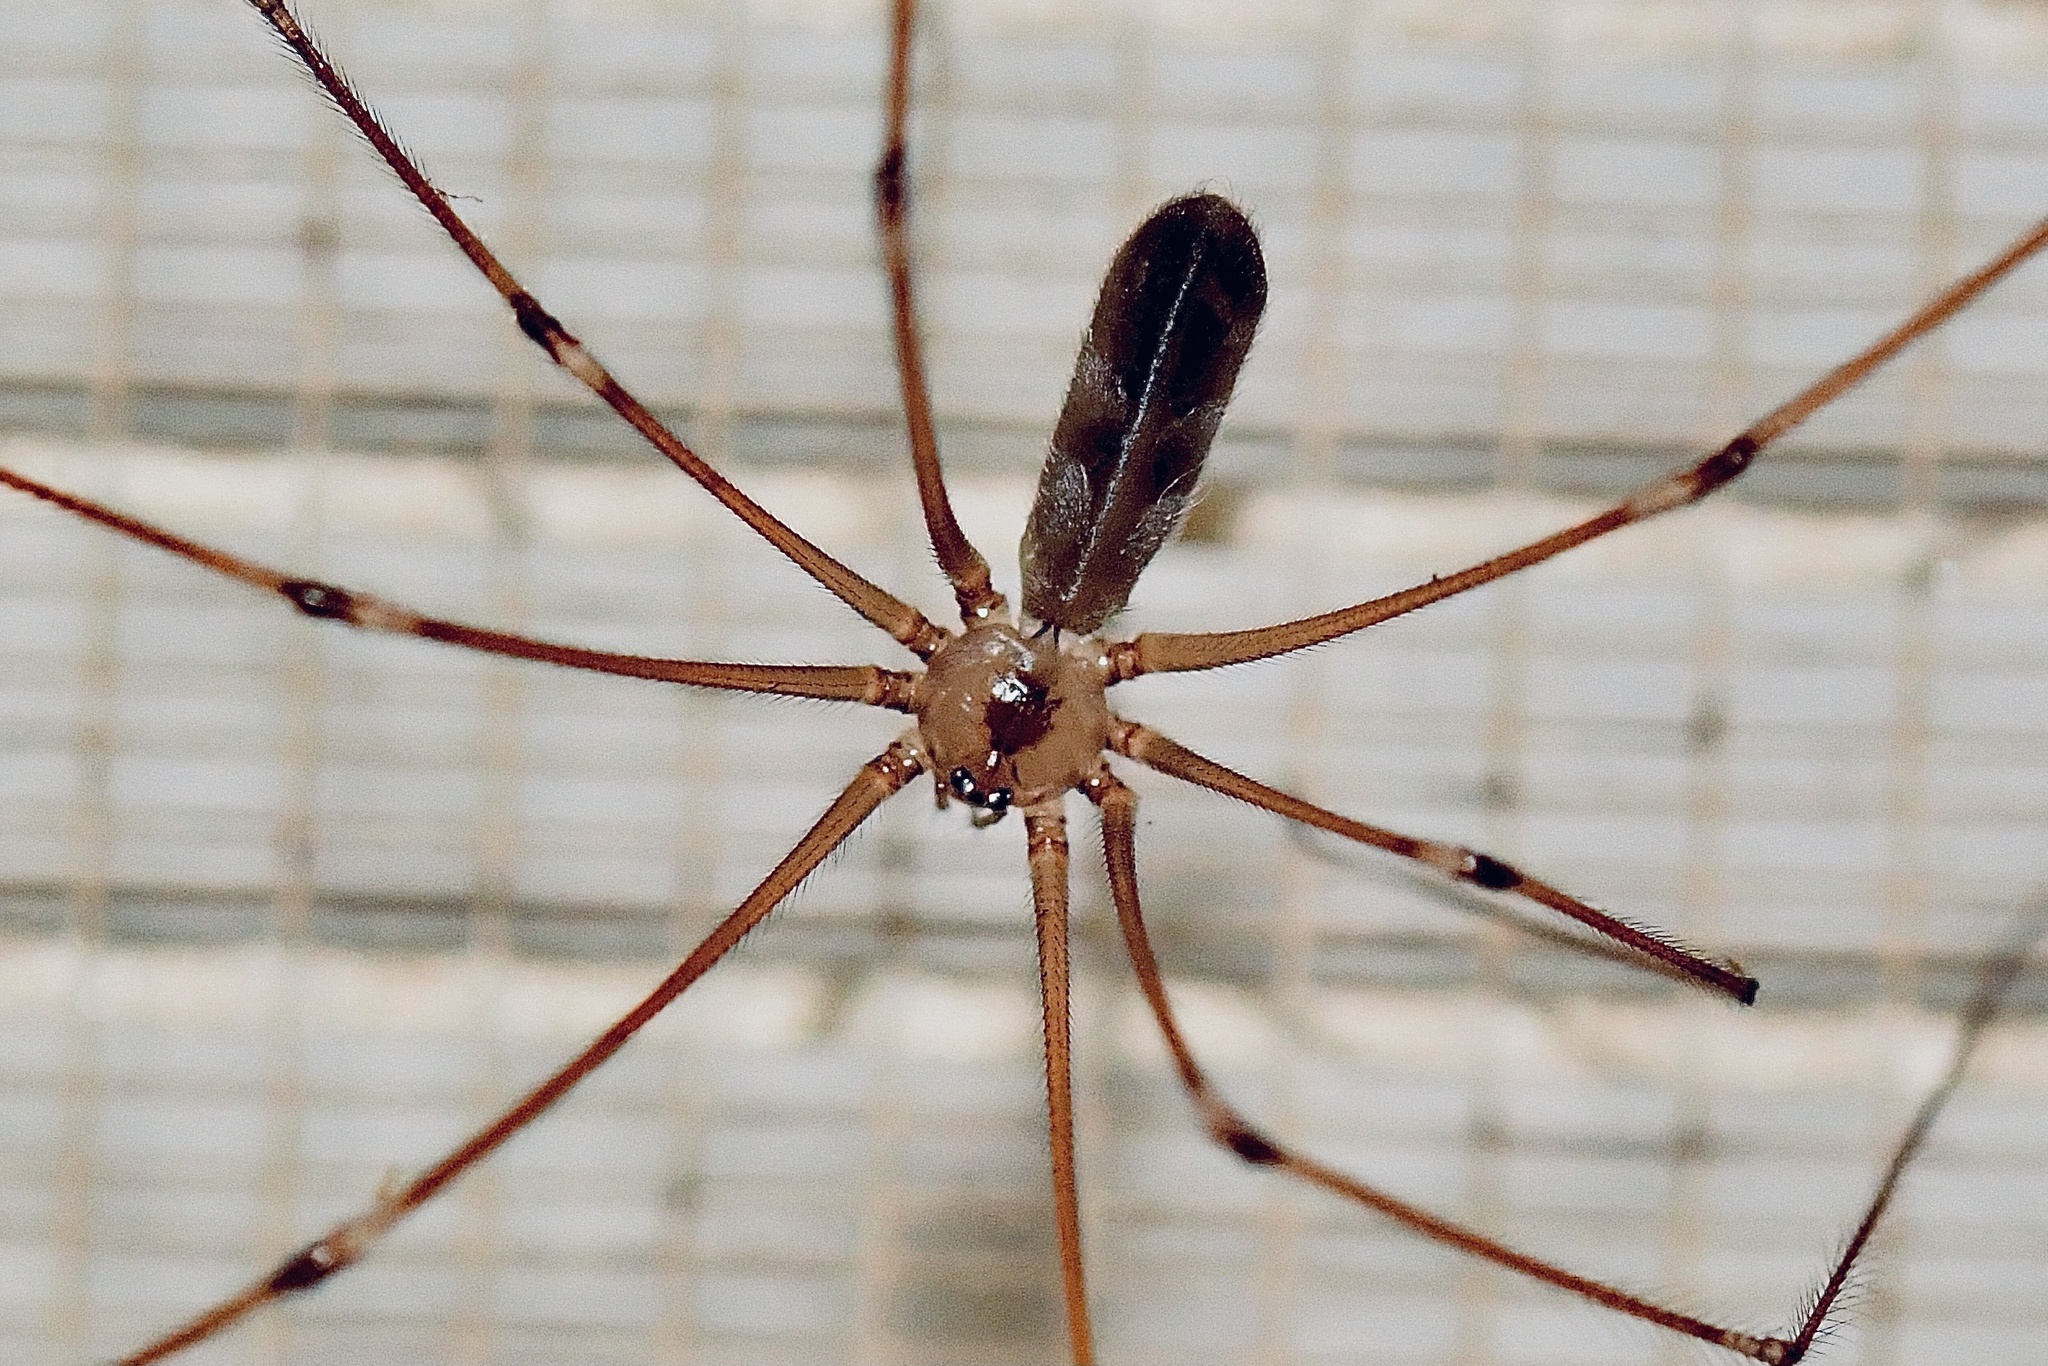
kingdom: Animalia
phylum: Arthropoda
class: Arachnida
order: Araneae
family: Pholcidae
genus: Pholcus
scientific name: Pholcus phalangioides
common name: Longbodied cellar spider
